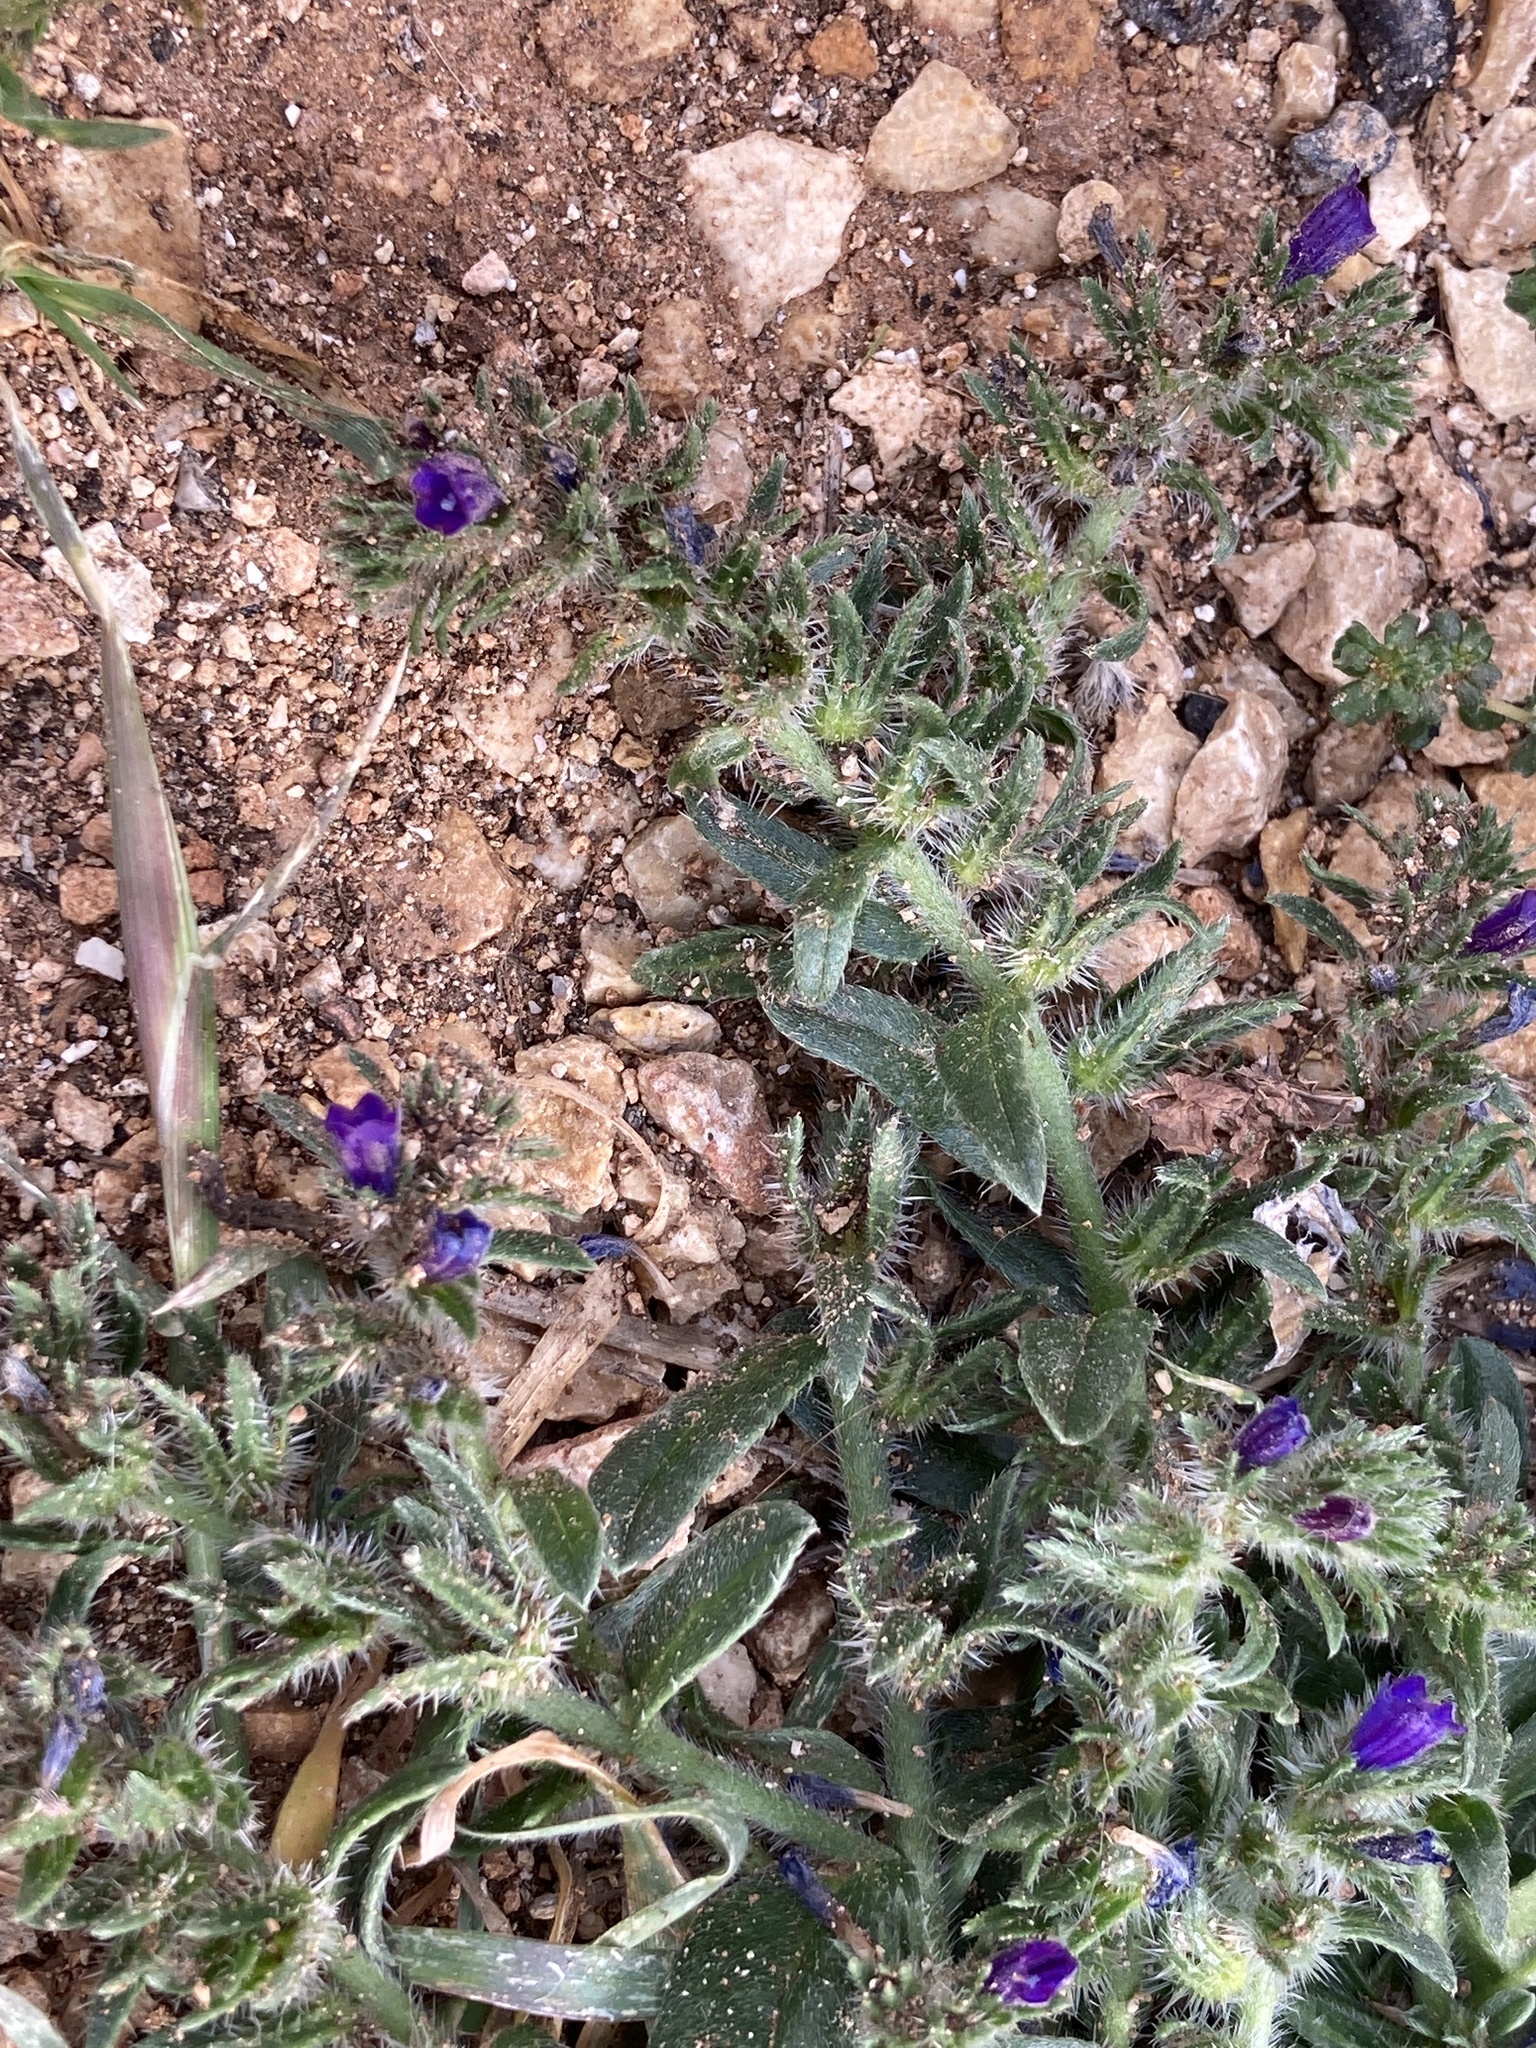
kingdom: Plantae
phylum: Tracheophyta
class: Magnoliopsida
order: Boraginales
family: Boraginaceae
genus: Echium
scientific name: Echium arenarium
